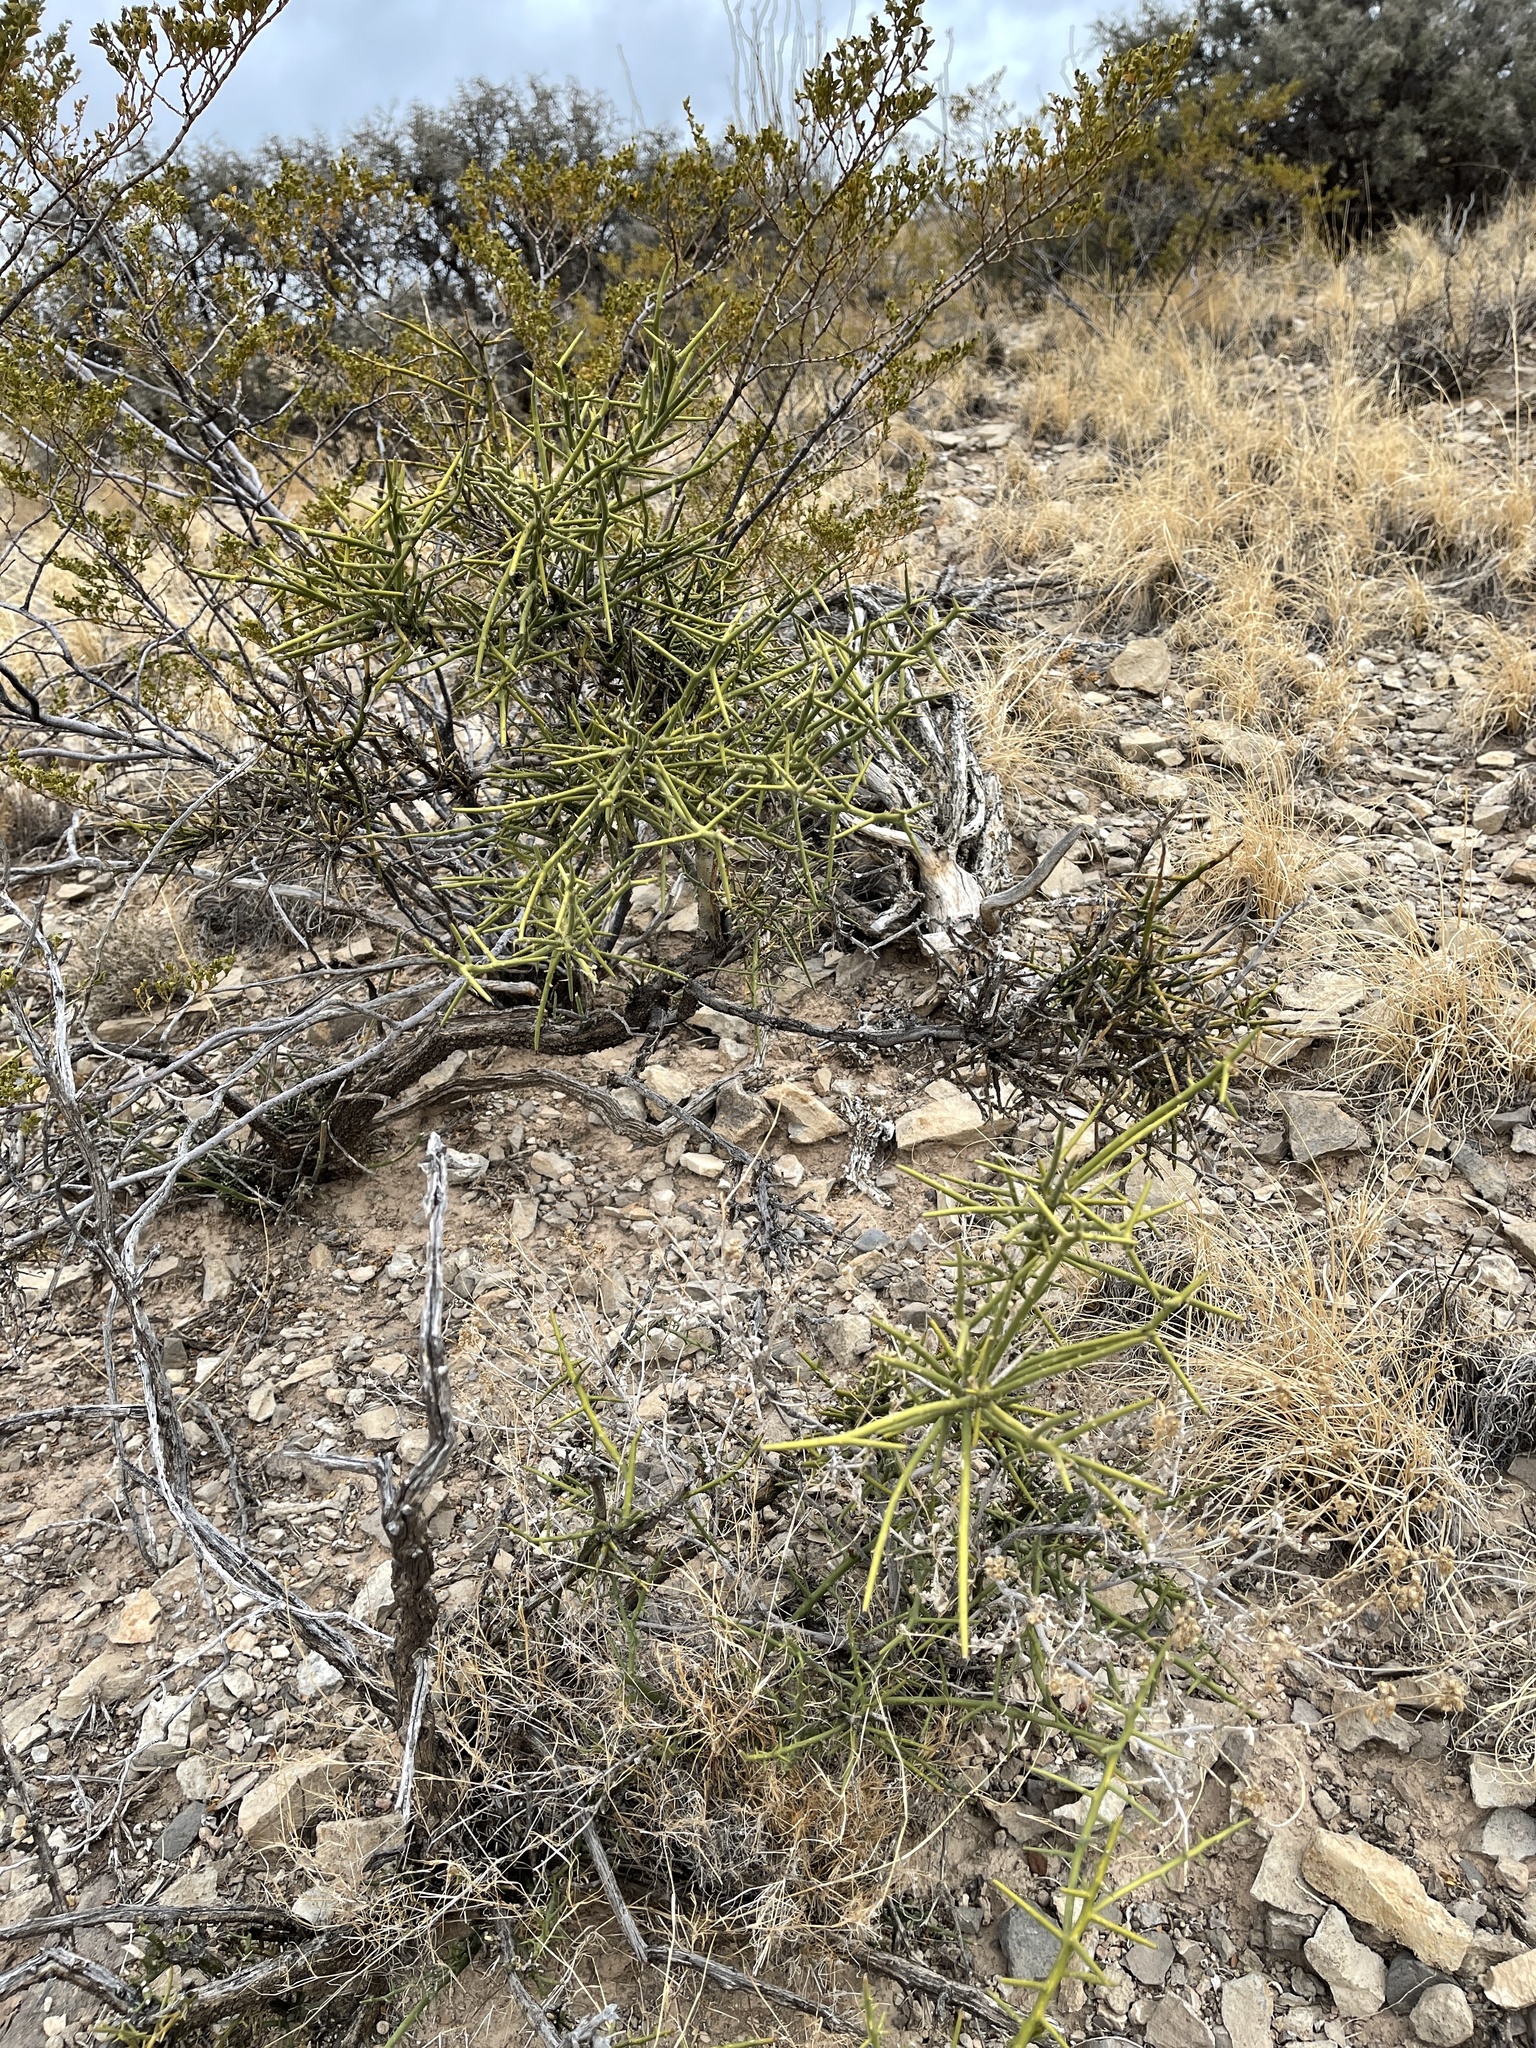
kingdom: Plantae
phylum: Tracheophyta
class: Magnoliopsida
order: Brassicales
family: Koeberliniaceae
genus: Koeberlinia
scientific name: Koeberlinia spinosa
